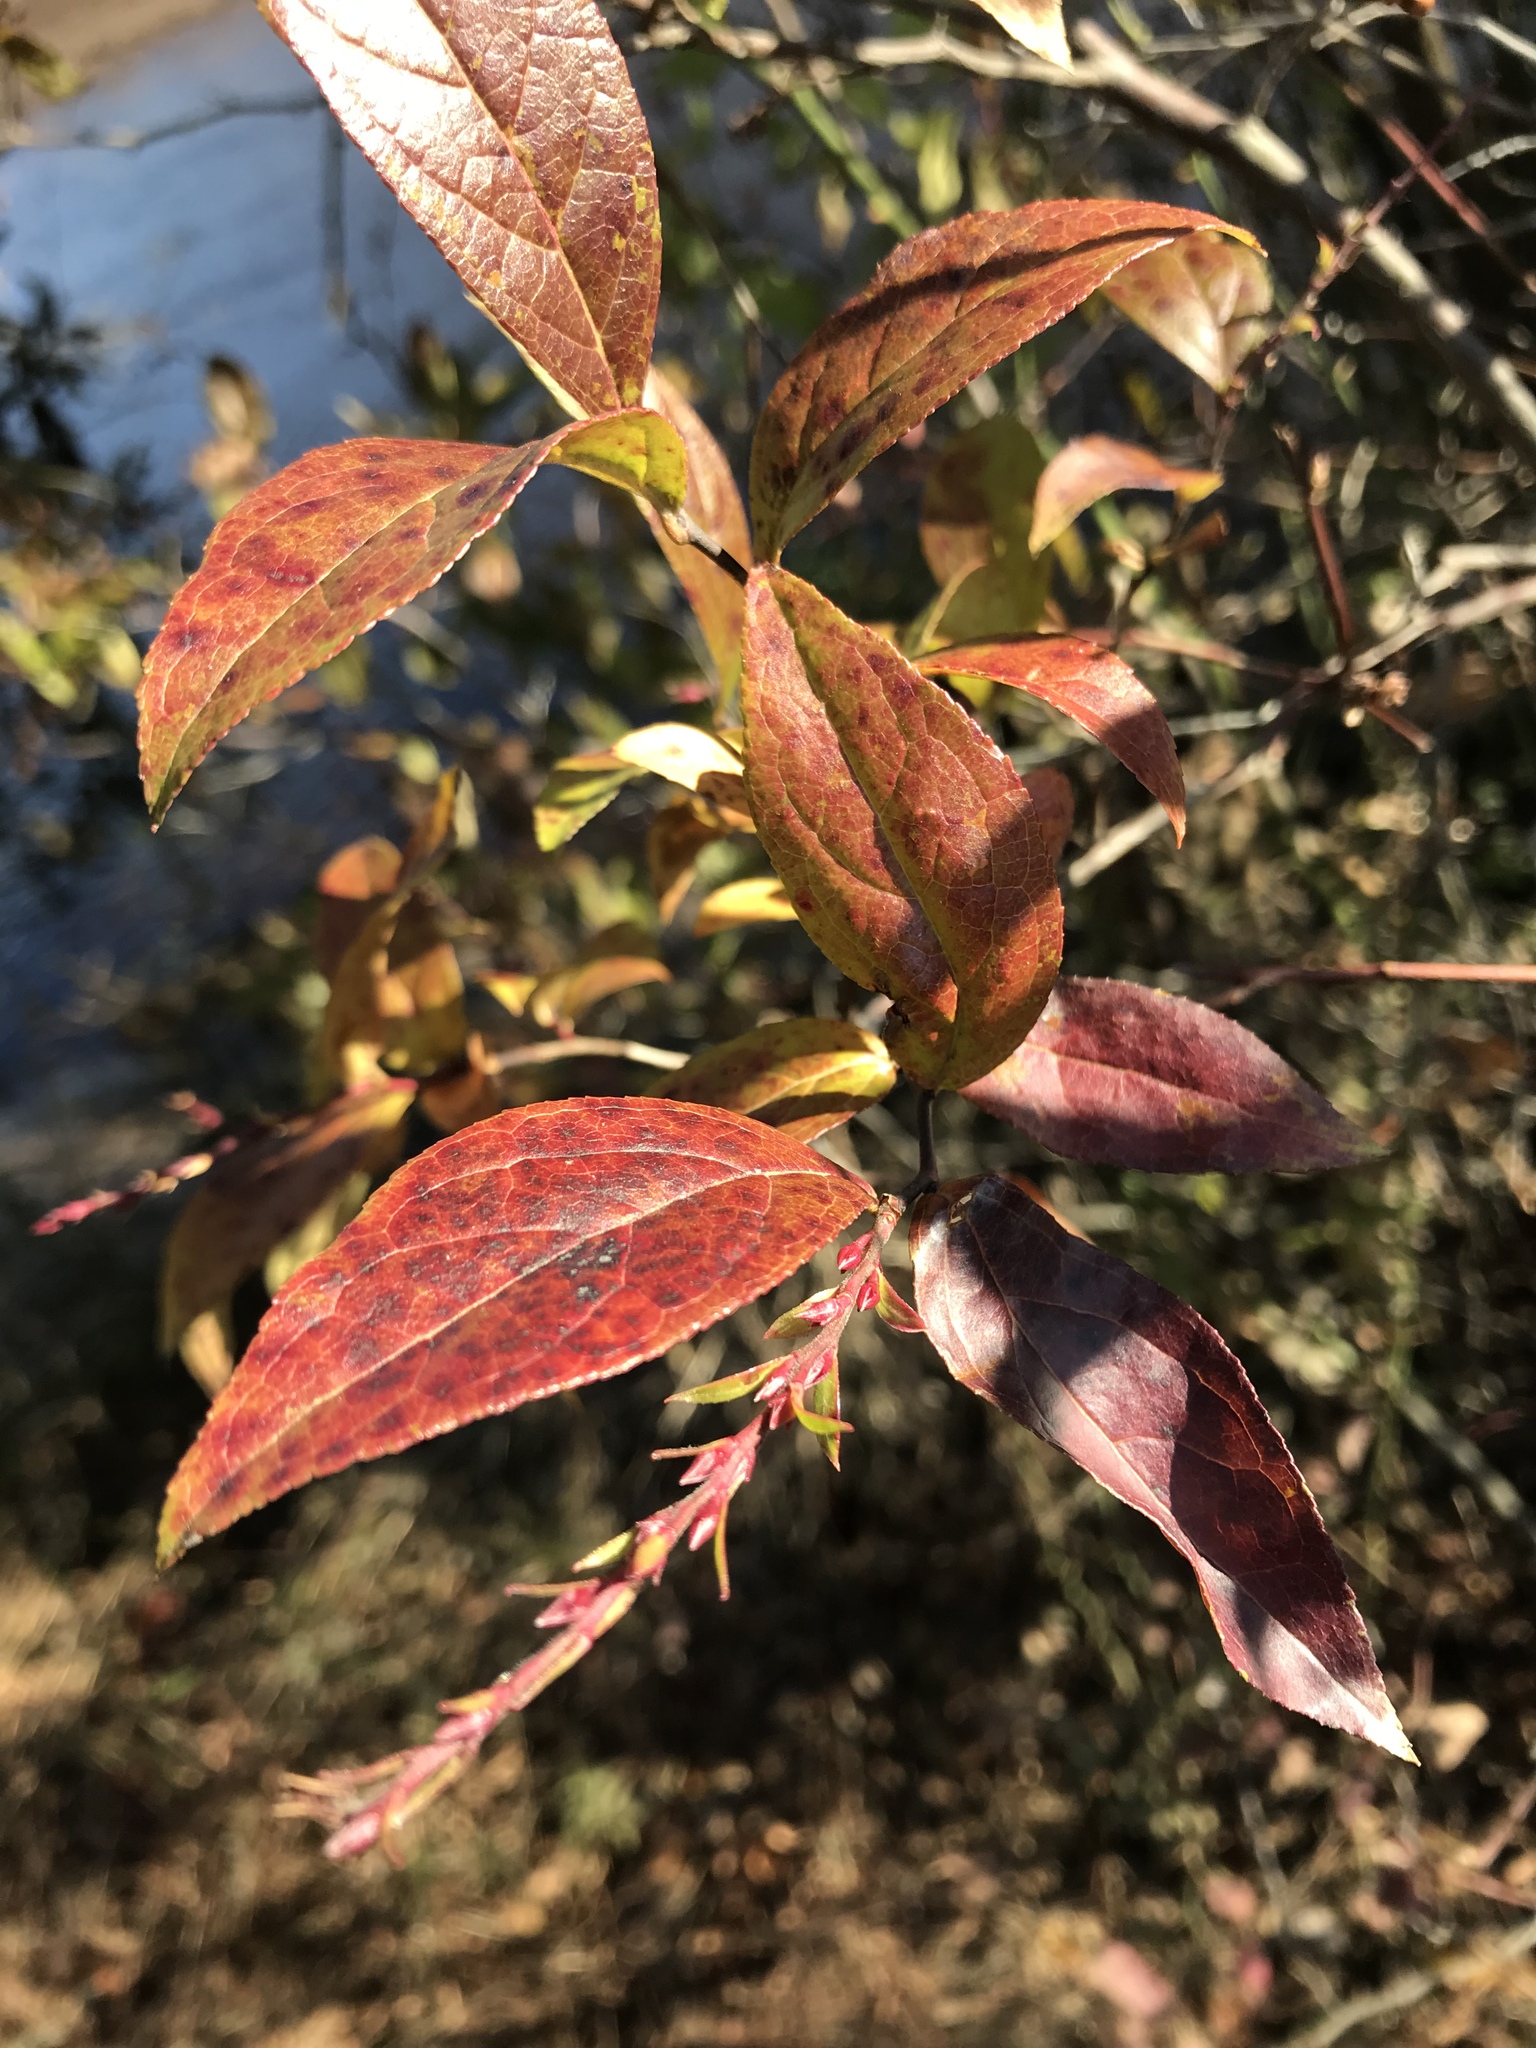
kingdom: Plantae
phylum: Tracheophyta
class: Magnoliopsida
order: Ericales
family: Ericaceae
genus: Eubotrys
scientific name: Eubotrys racemosa
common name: Fetterbush
